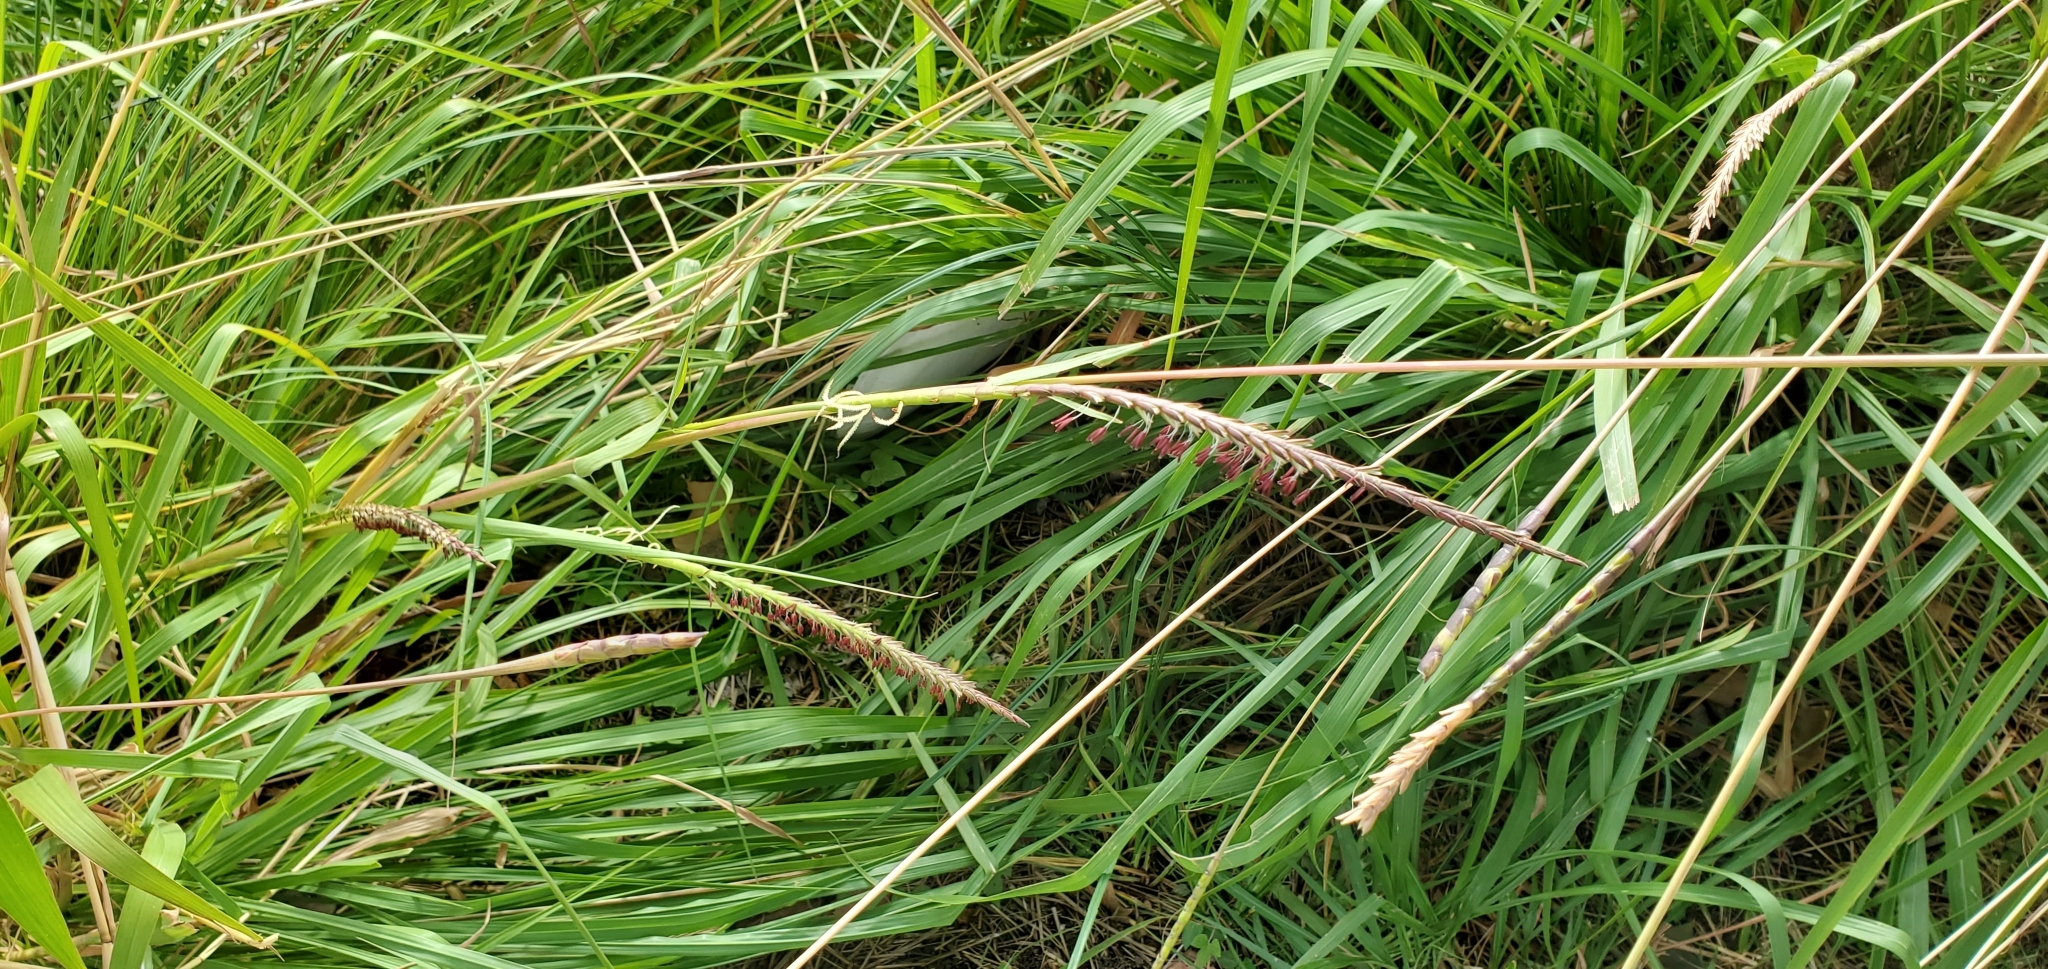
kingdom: Plantae
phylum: Tracheophyta
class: Liliopsida
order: Poales
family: Poaceae
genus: Tripsacum
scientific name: Tripsacum dactyloides
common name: Buffalo-grass
